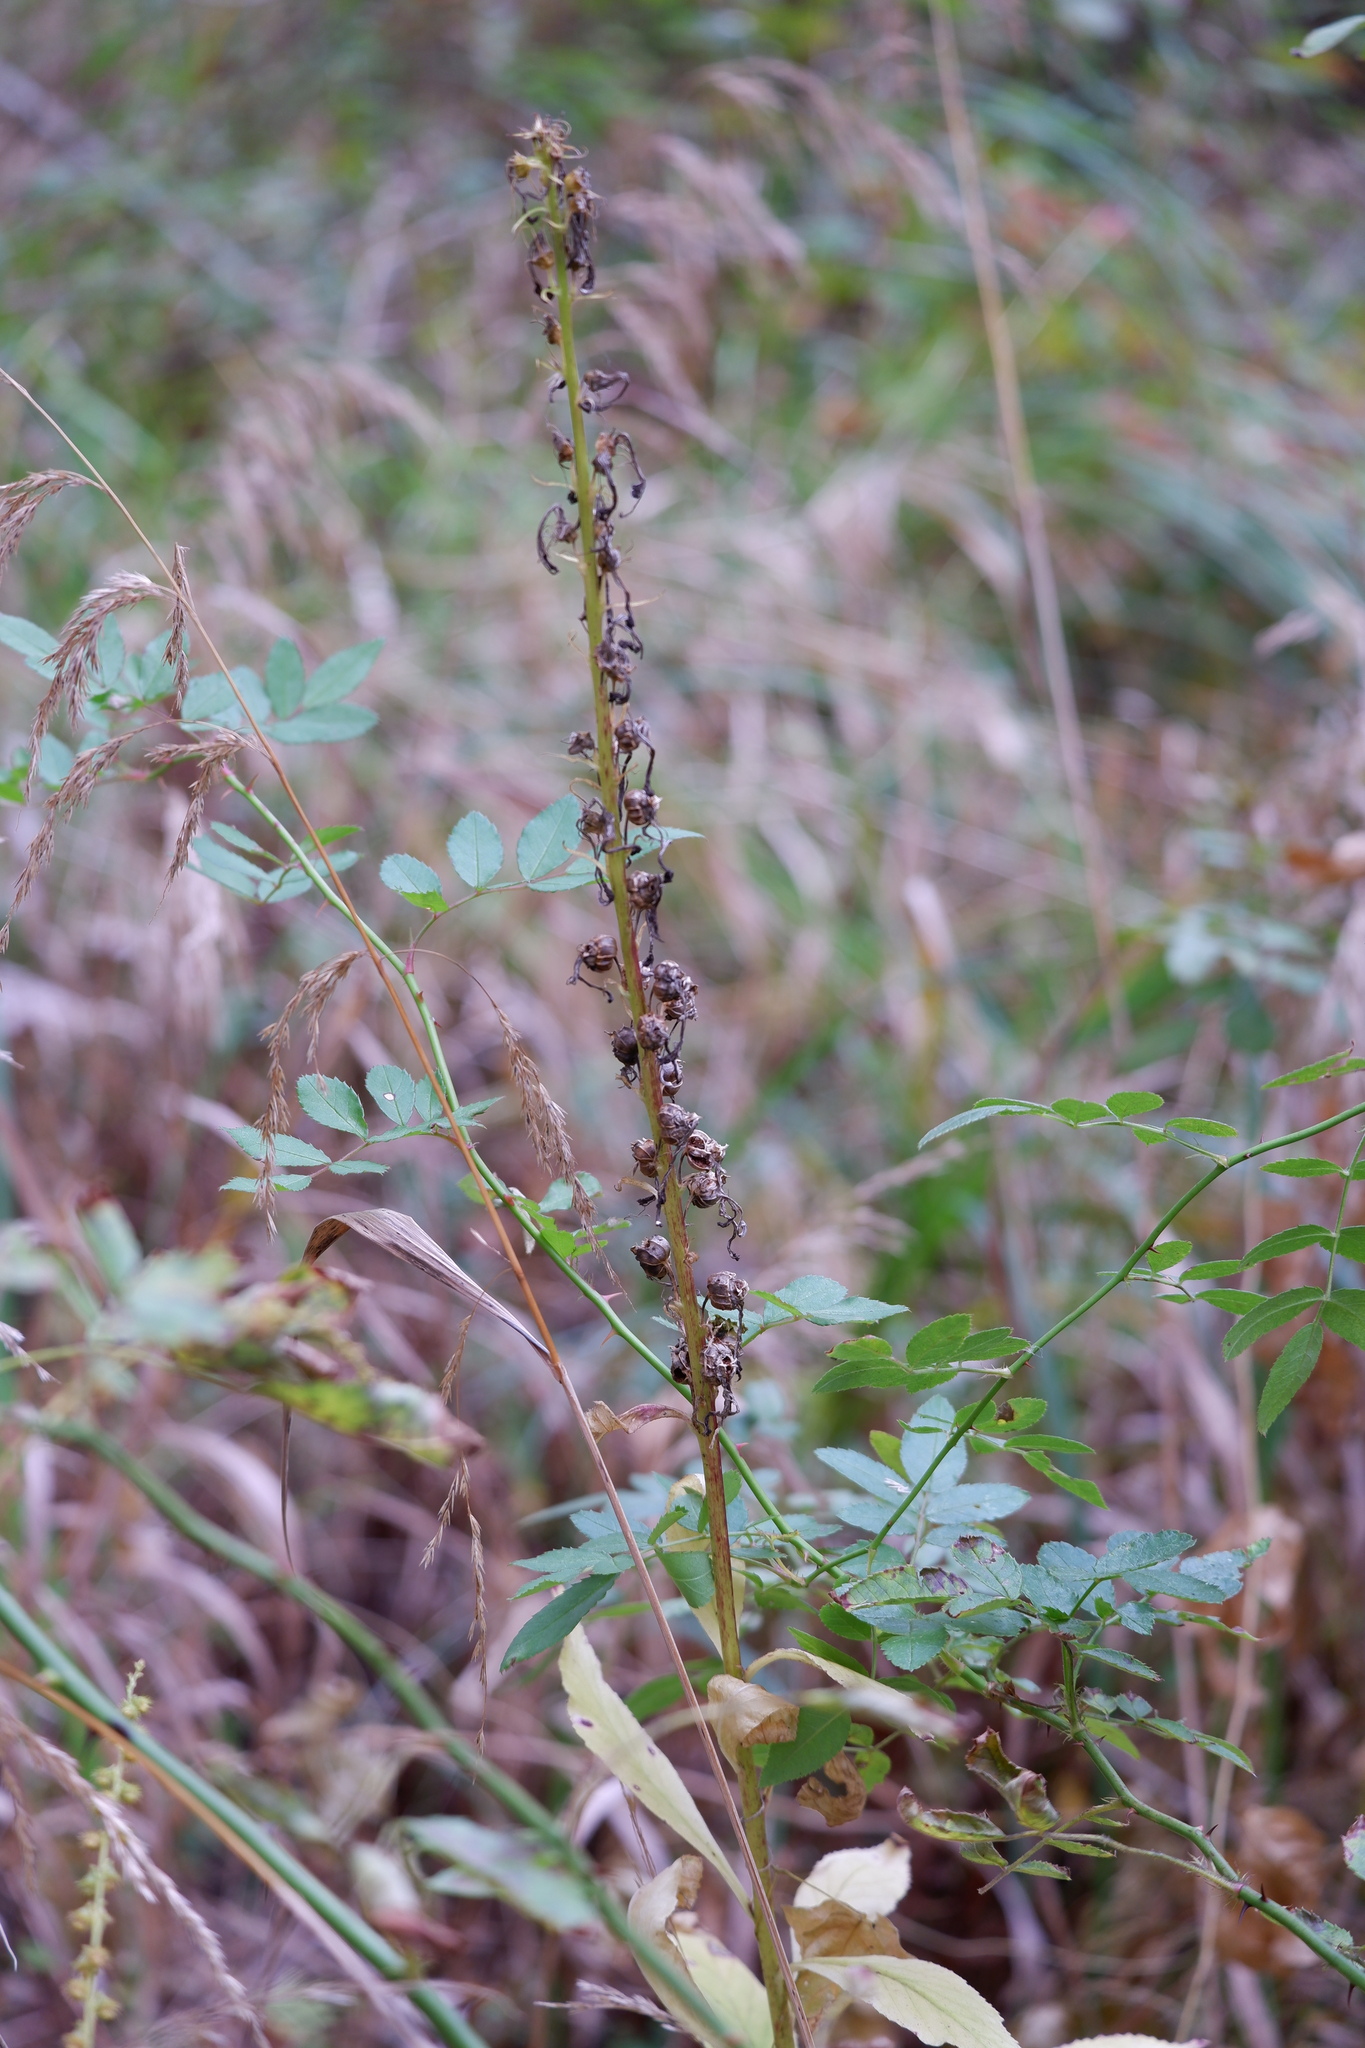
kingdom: Plantae
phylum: Tracheophyta
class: Magnoliopsida
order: Asterales
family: Campanulaceae
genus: Lobelia
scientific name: Lobelia cardinalis
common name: Cardinal flower
